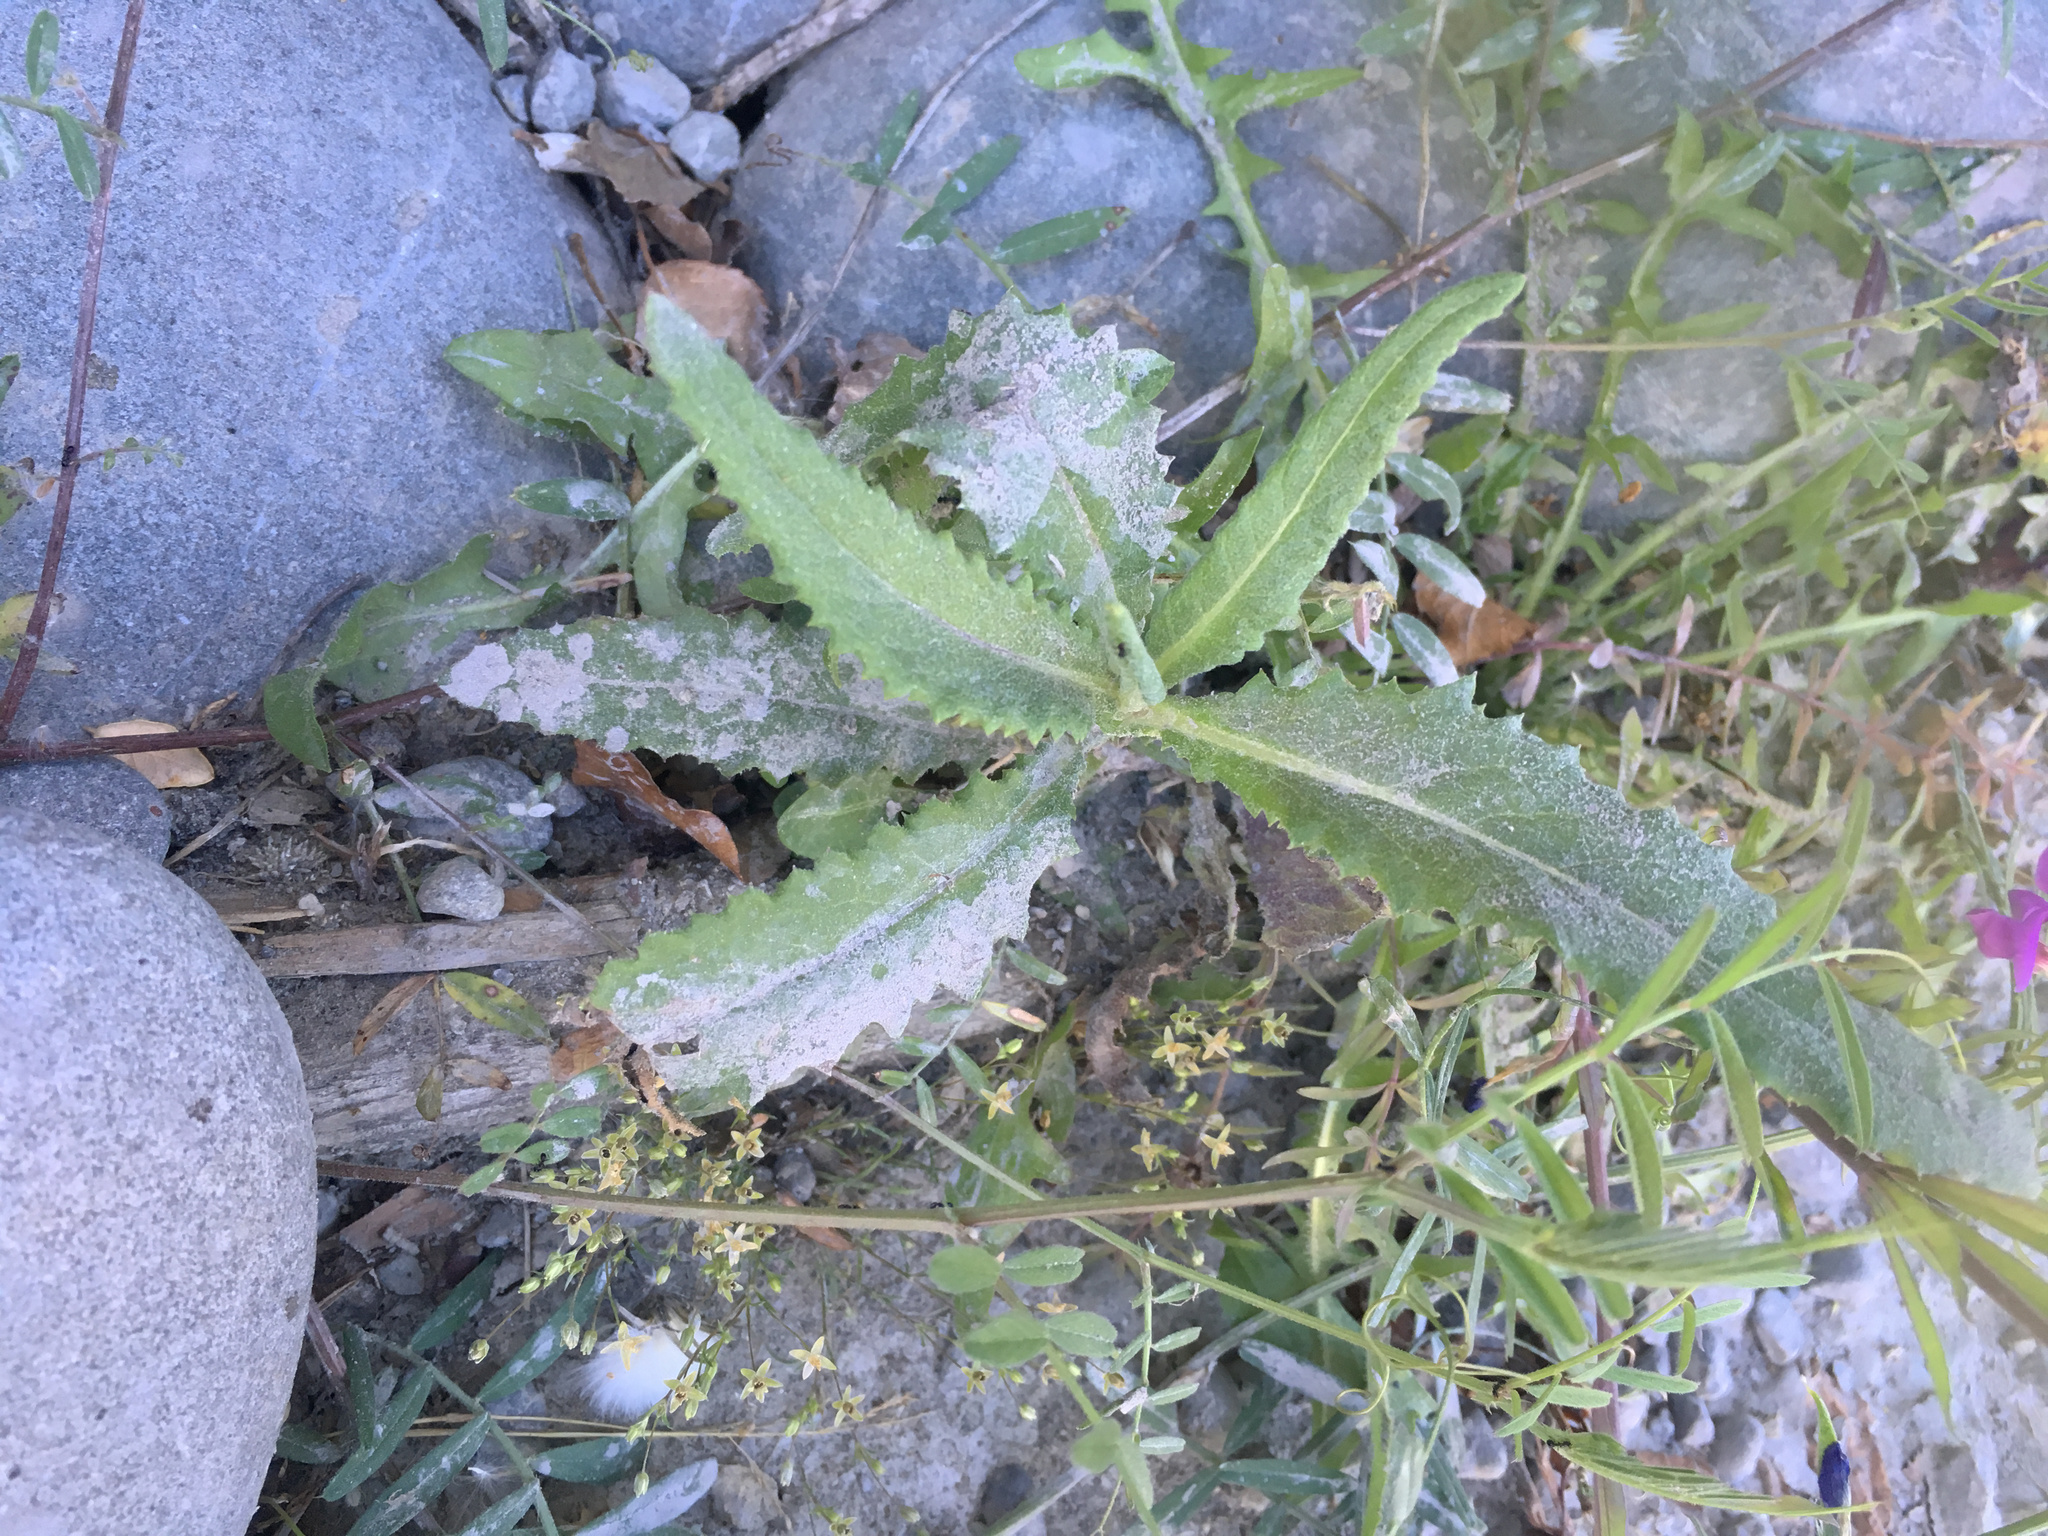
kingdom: Plantae
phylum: Tracheophyta
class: Magnoliopsida
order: Asterales
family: Asteraceae
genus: Senecio
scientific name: Senecio minimus
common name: Toothed fireweed
